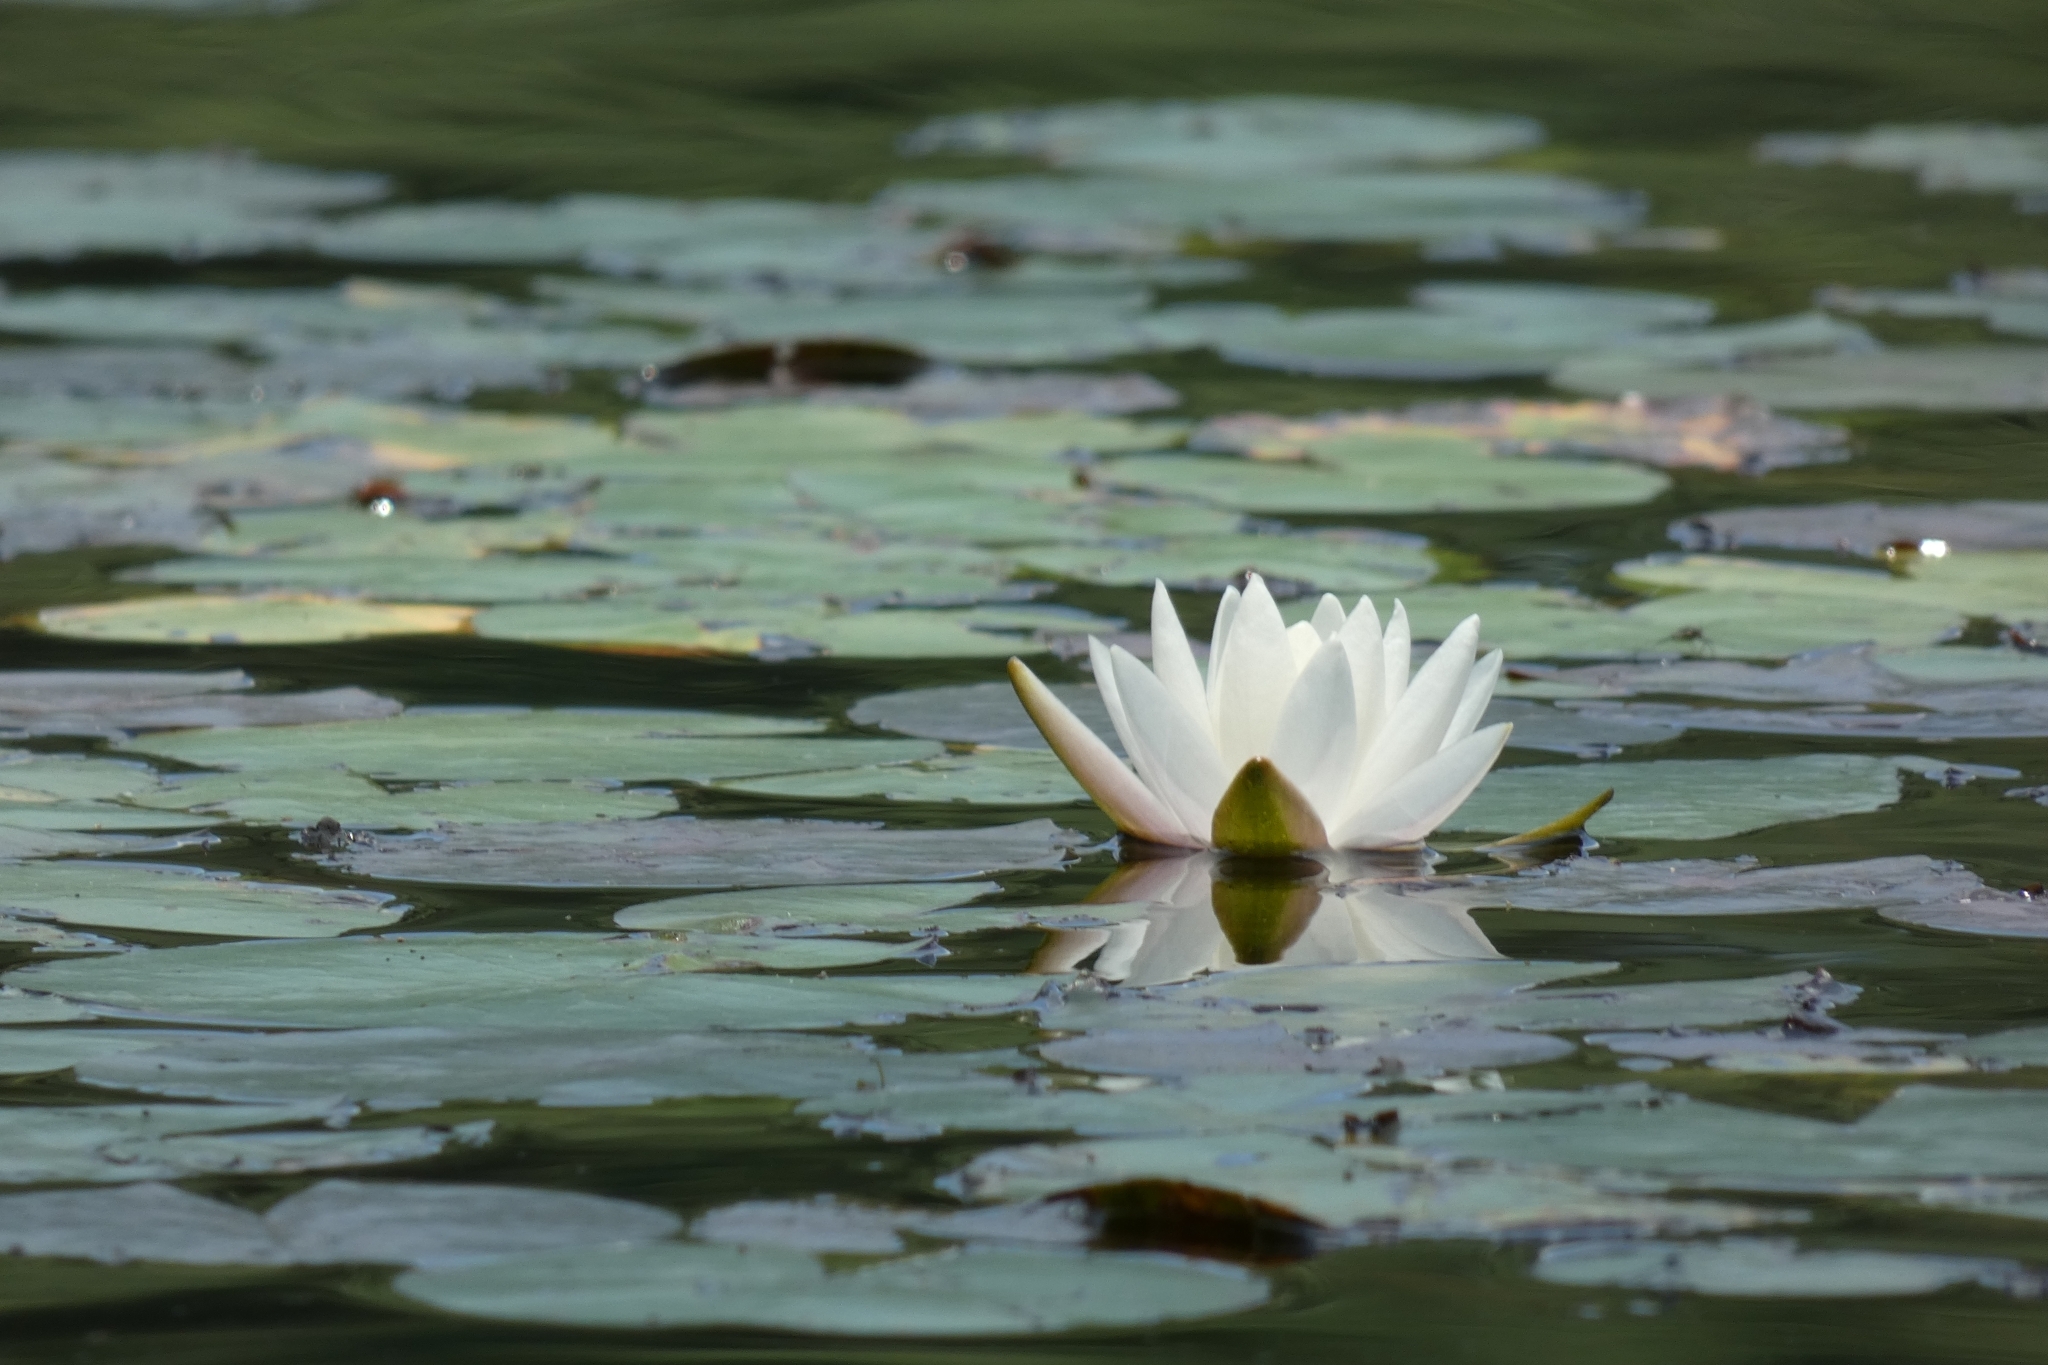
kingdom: Plantae
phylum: Tracheophyta
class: Magnoliopsida
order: Nymphaeales
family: Nymphaeaceae
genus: Nymphaea
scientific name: Nymphaea odorata
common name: Fragrant water-lily
